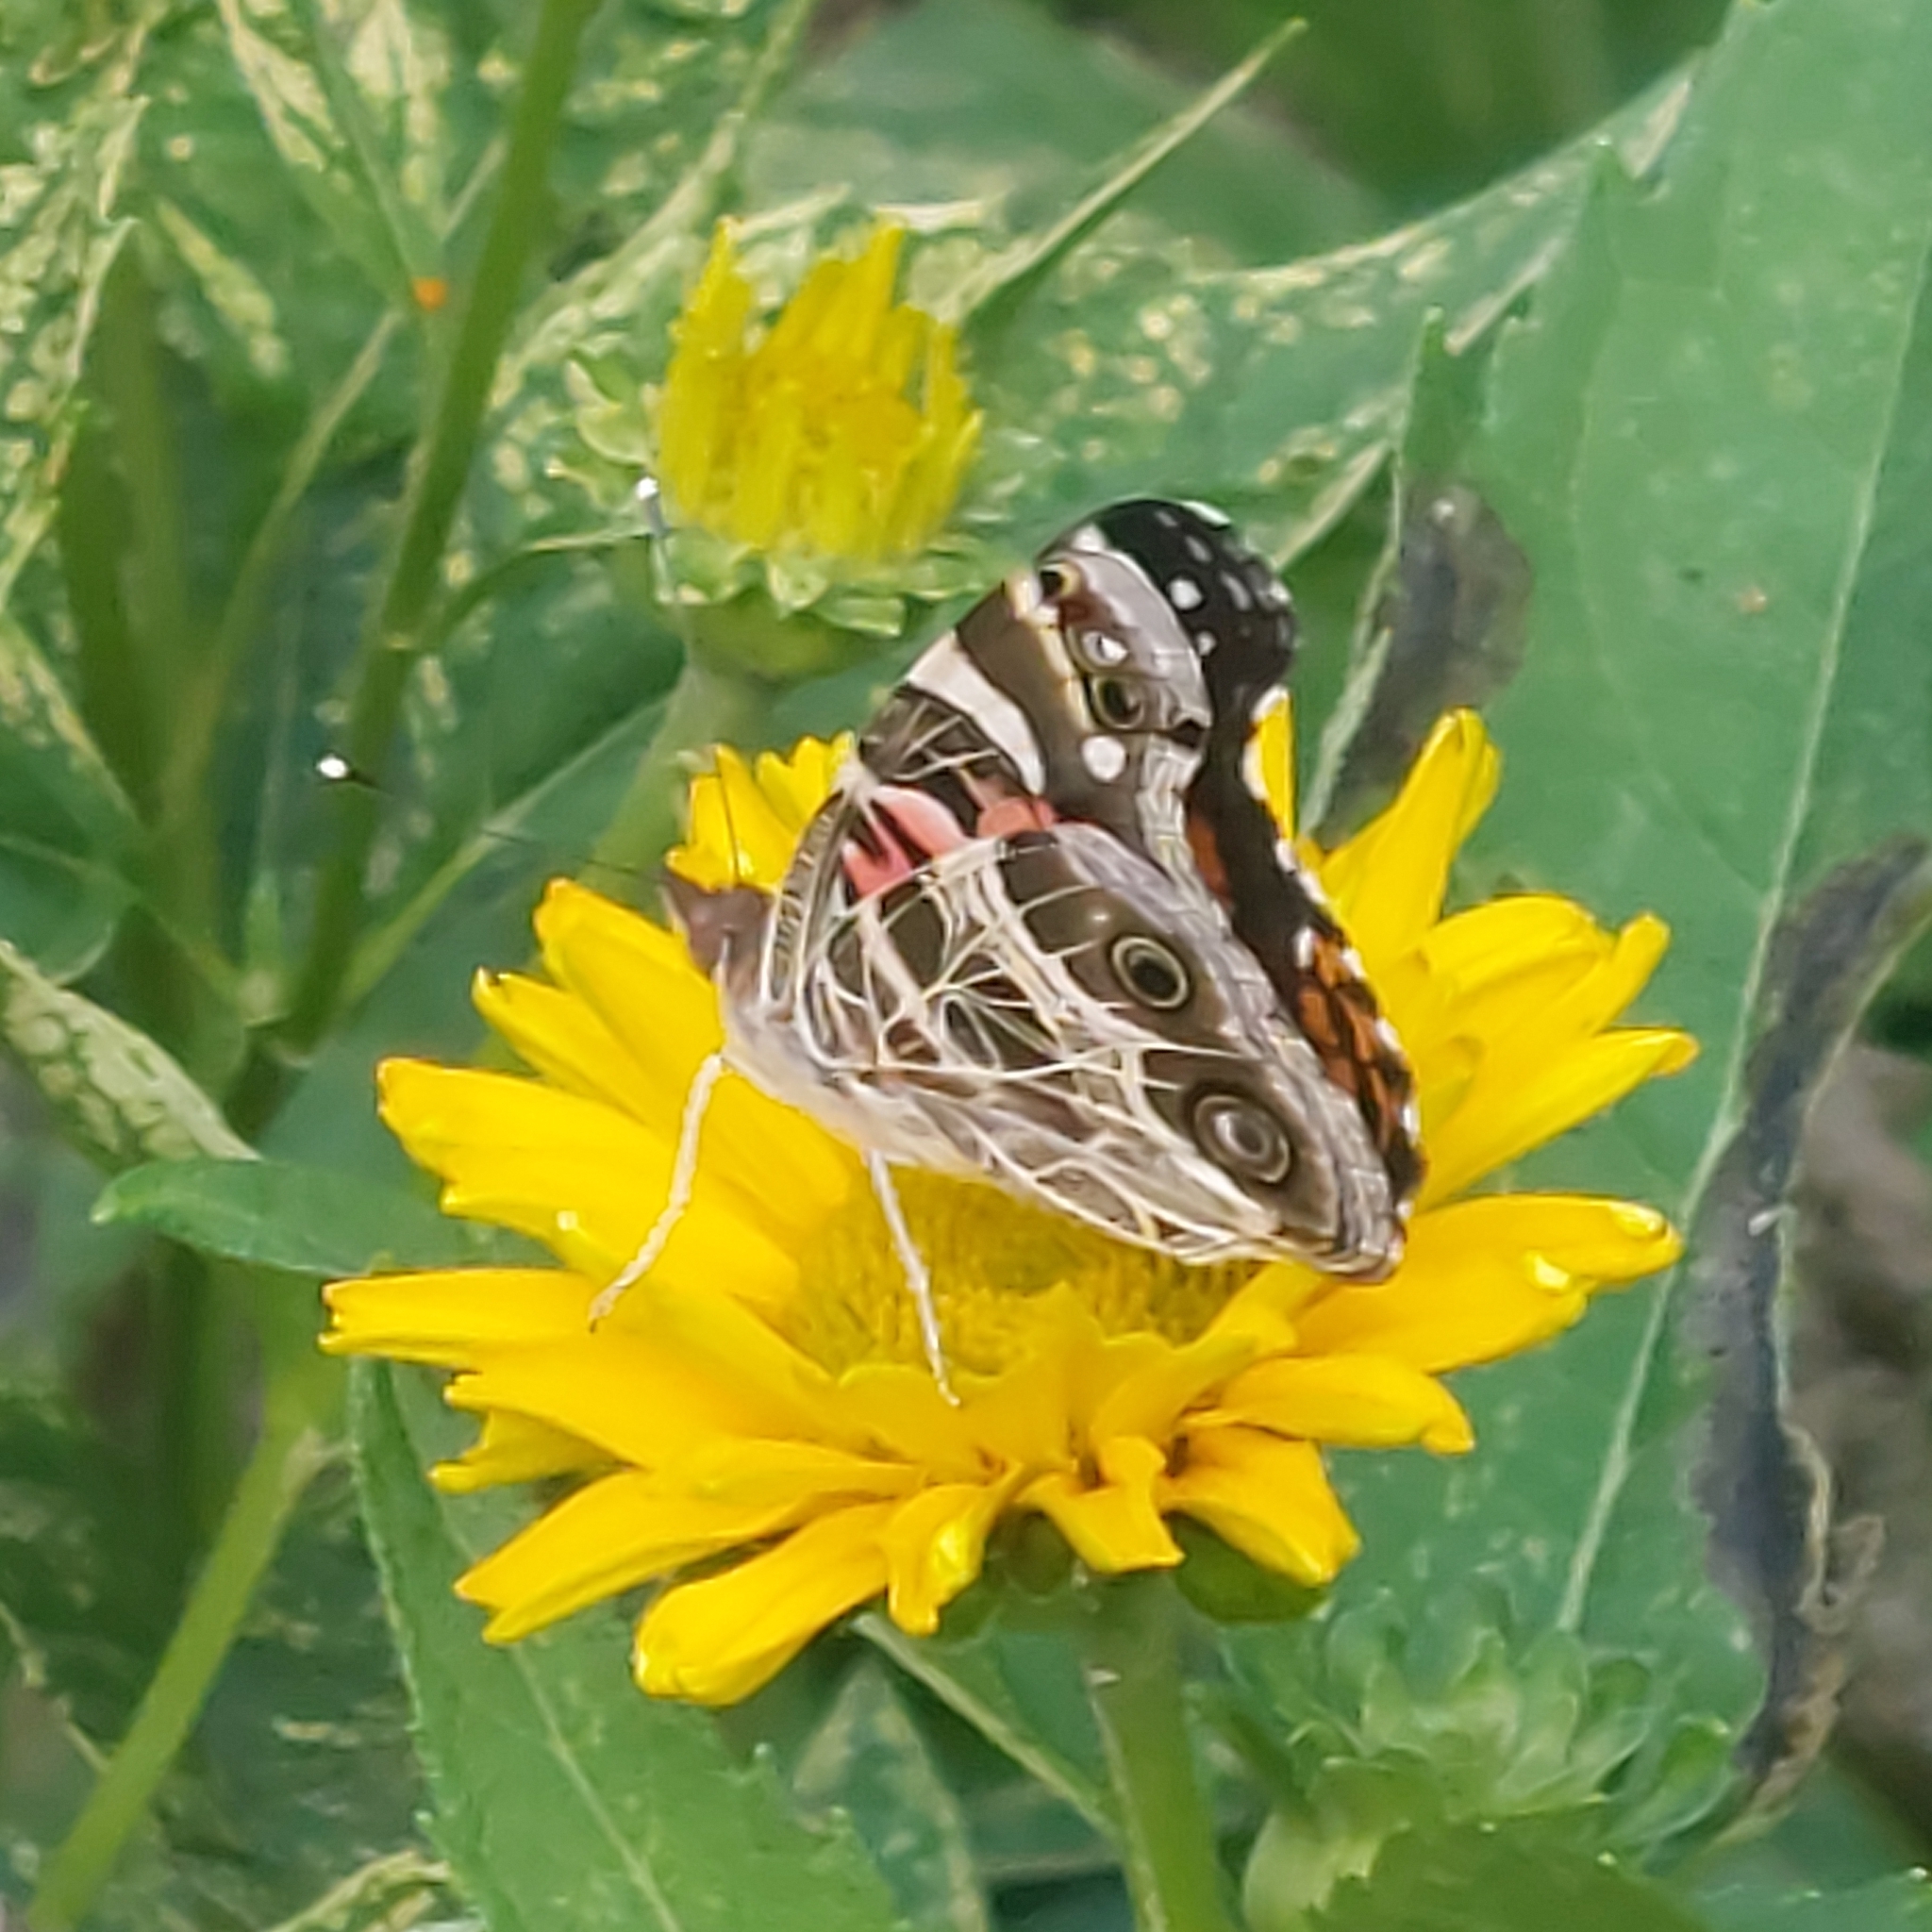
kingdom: Animalia
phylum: Arthropoda
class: Insecta
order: Lepidoptera
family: Nymphalidae
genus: Vanessa
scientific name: Vanessa virginiensis
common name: American lady
